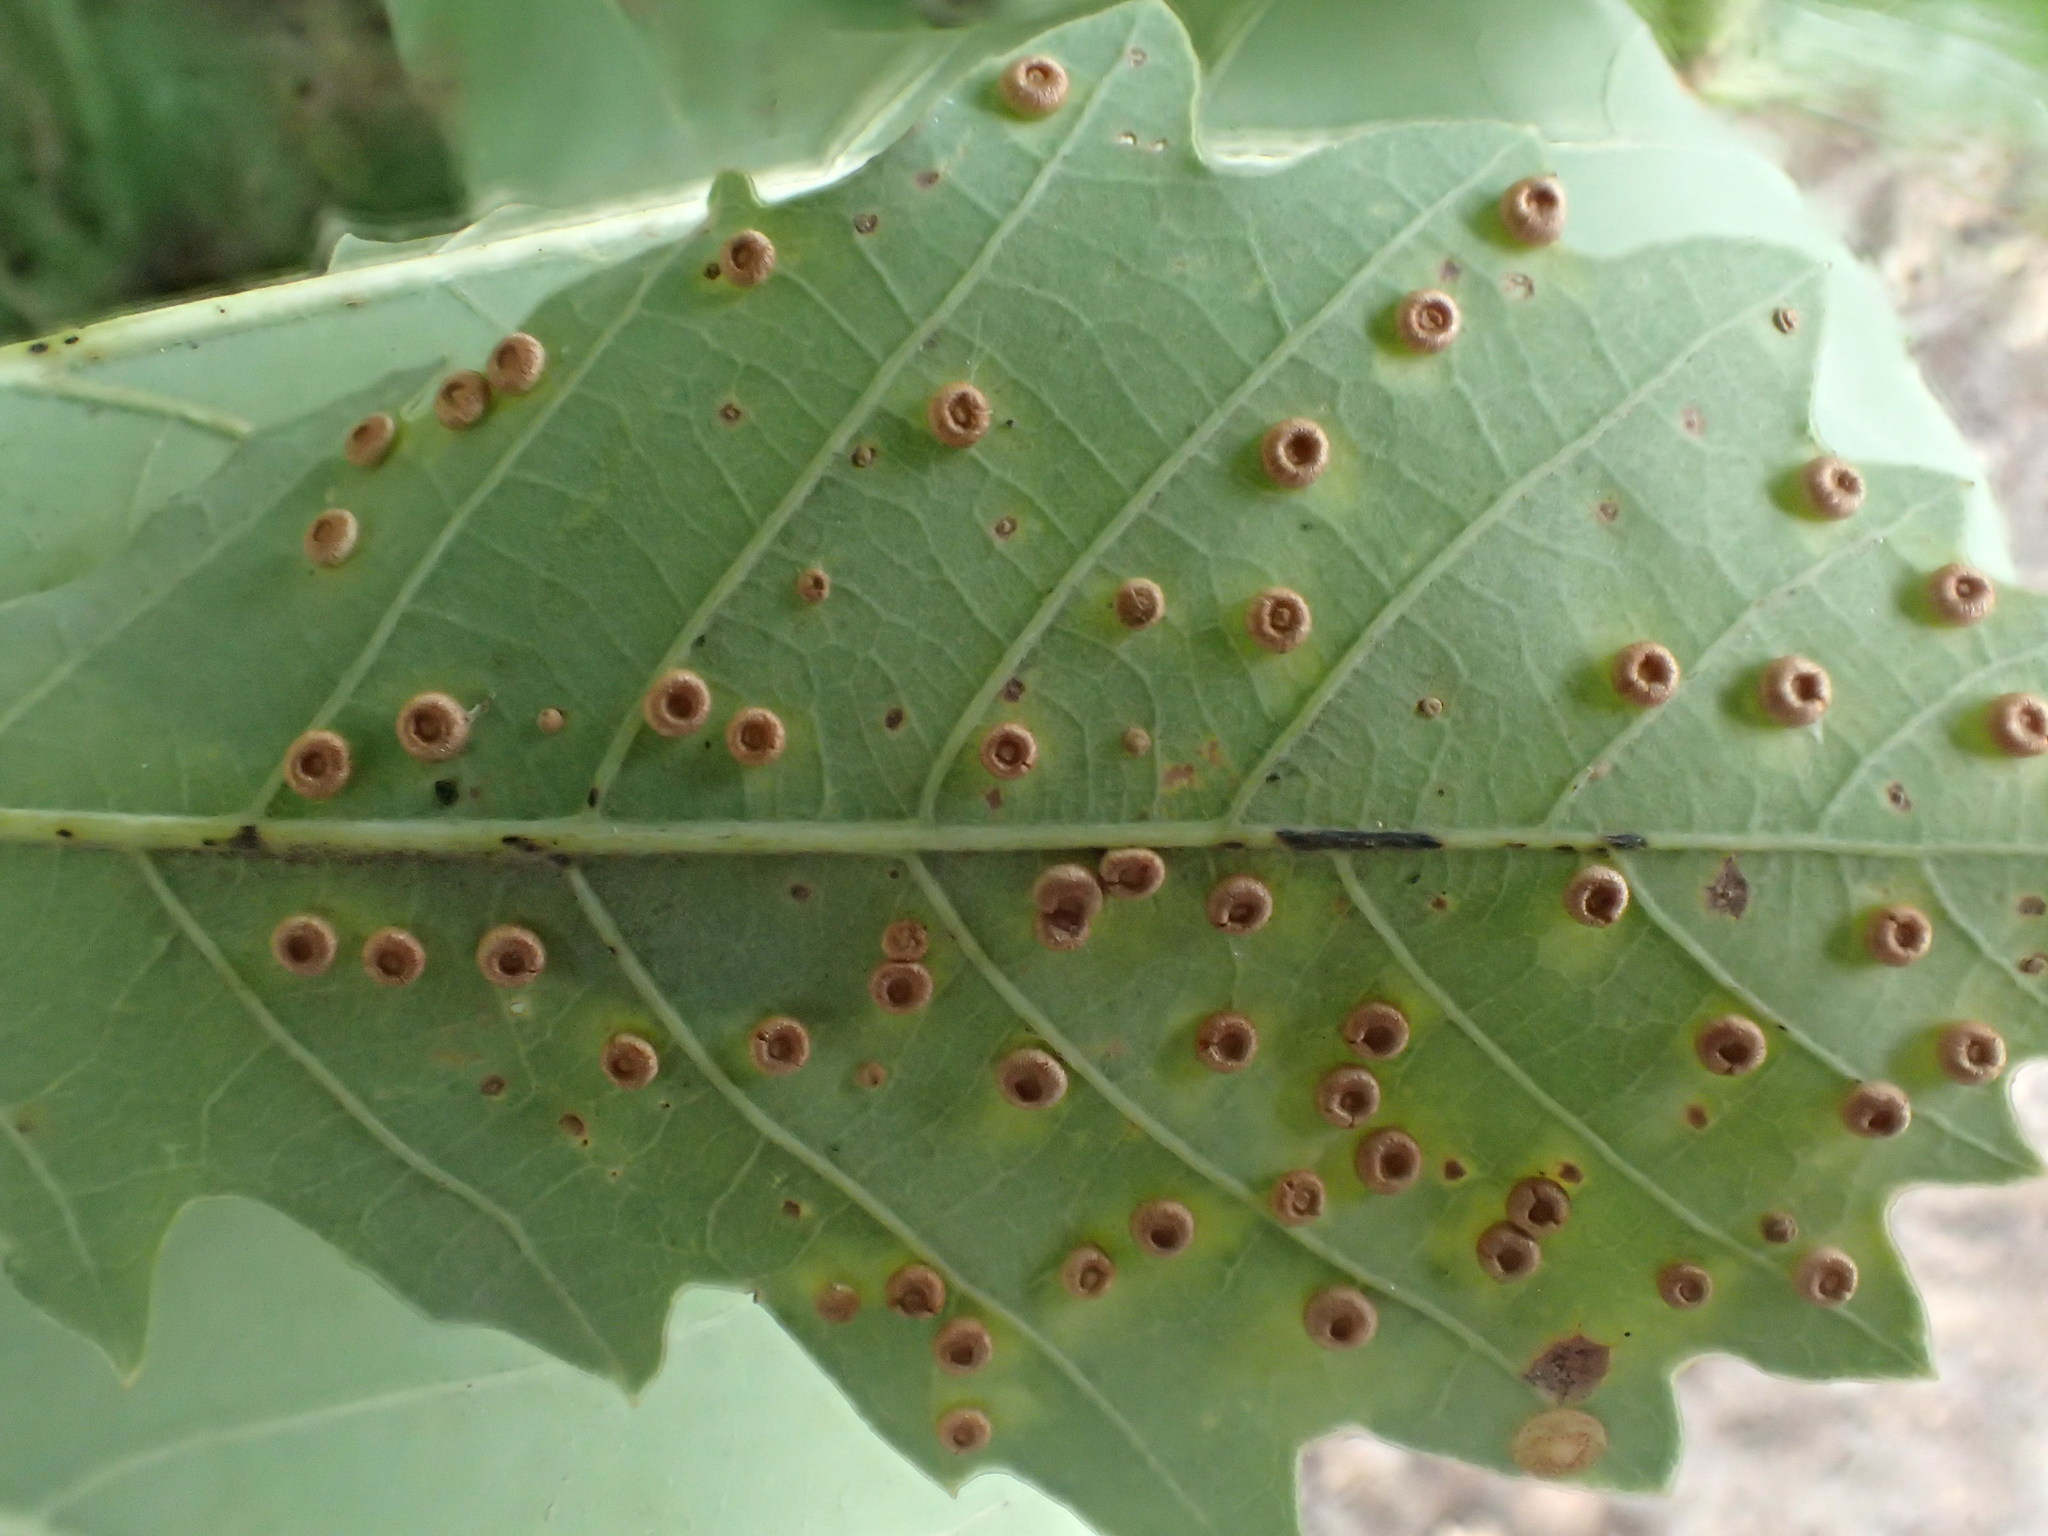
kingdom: Animalia
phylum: Arthropoda
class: Insecta
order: Hymenoptera
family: Cynipidae
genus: Neuroterus
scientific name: Neuroterus numismalis
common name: Silk-button spangle gall
